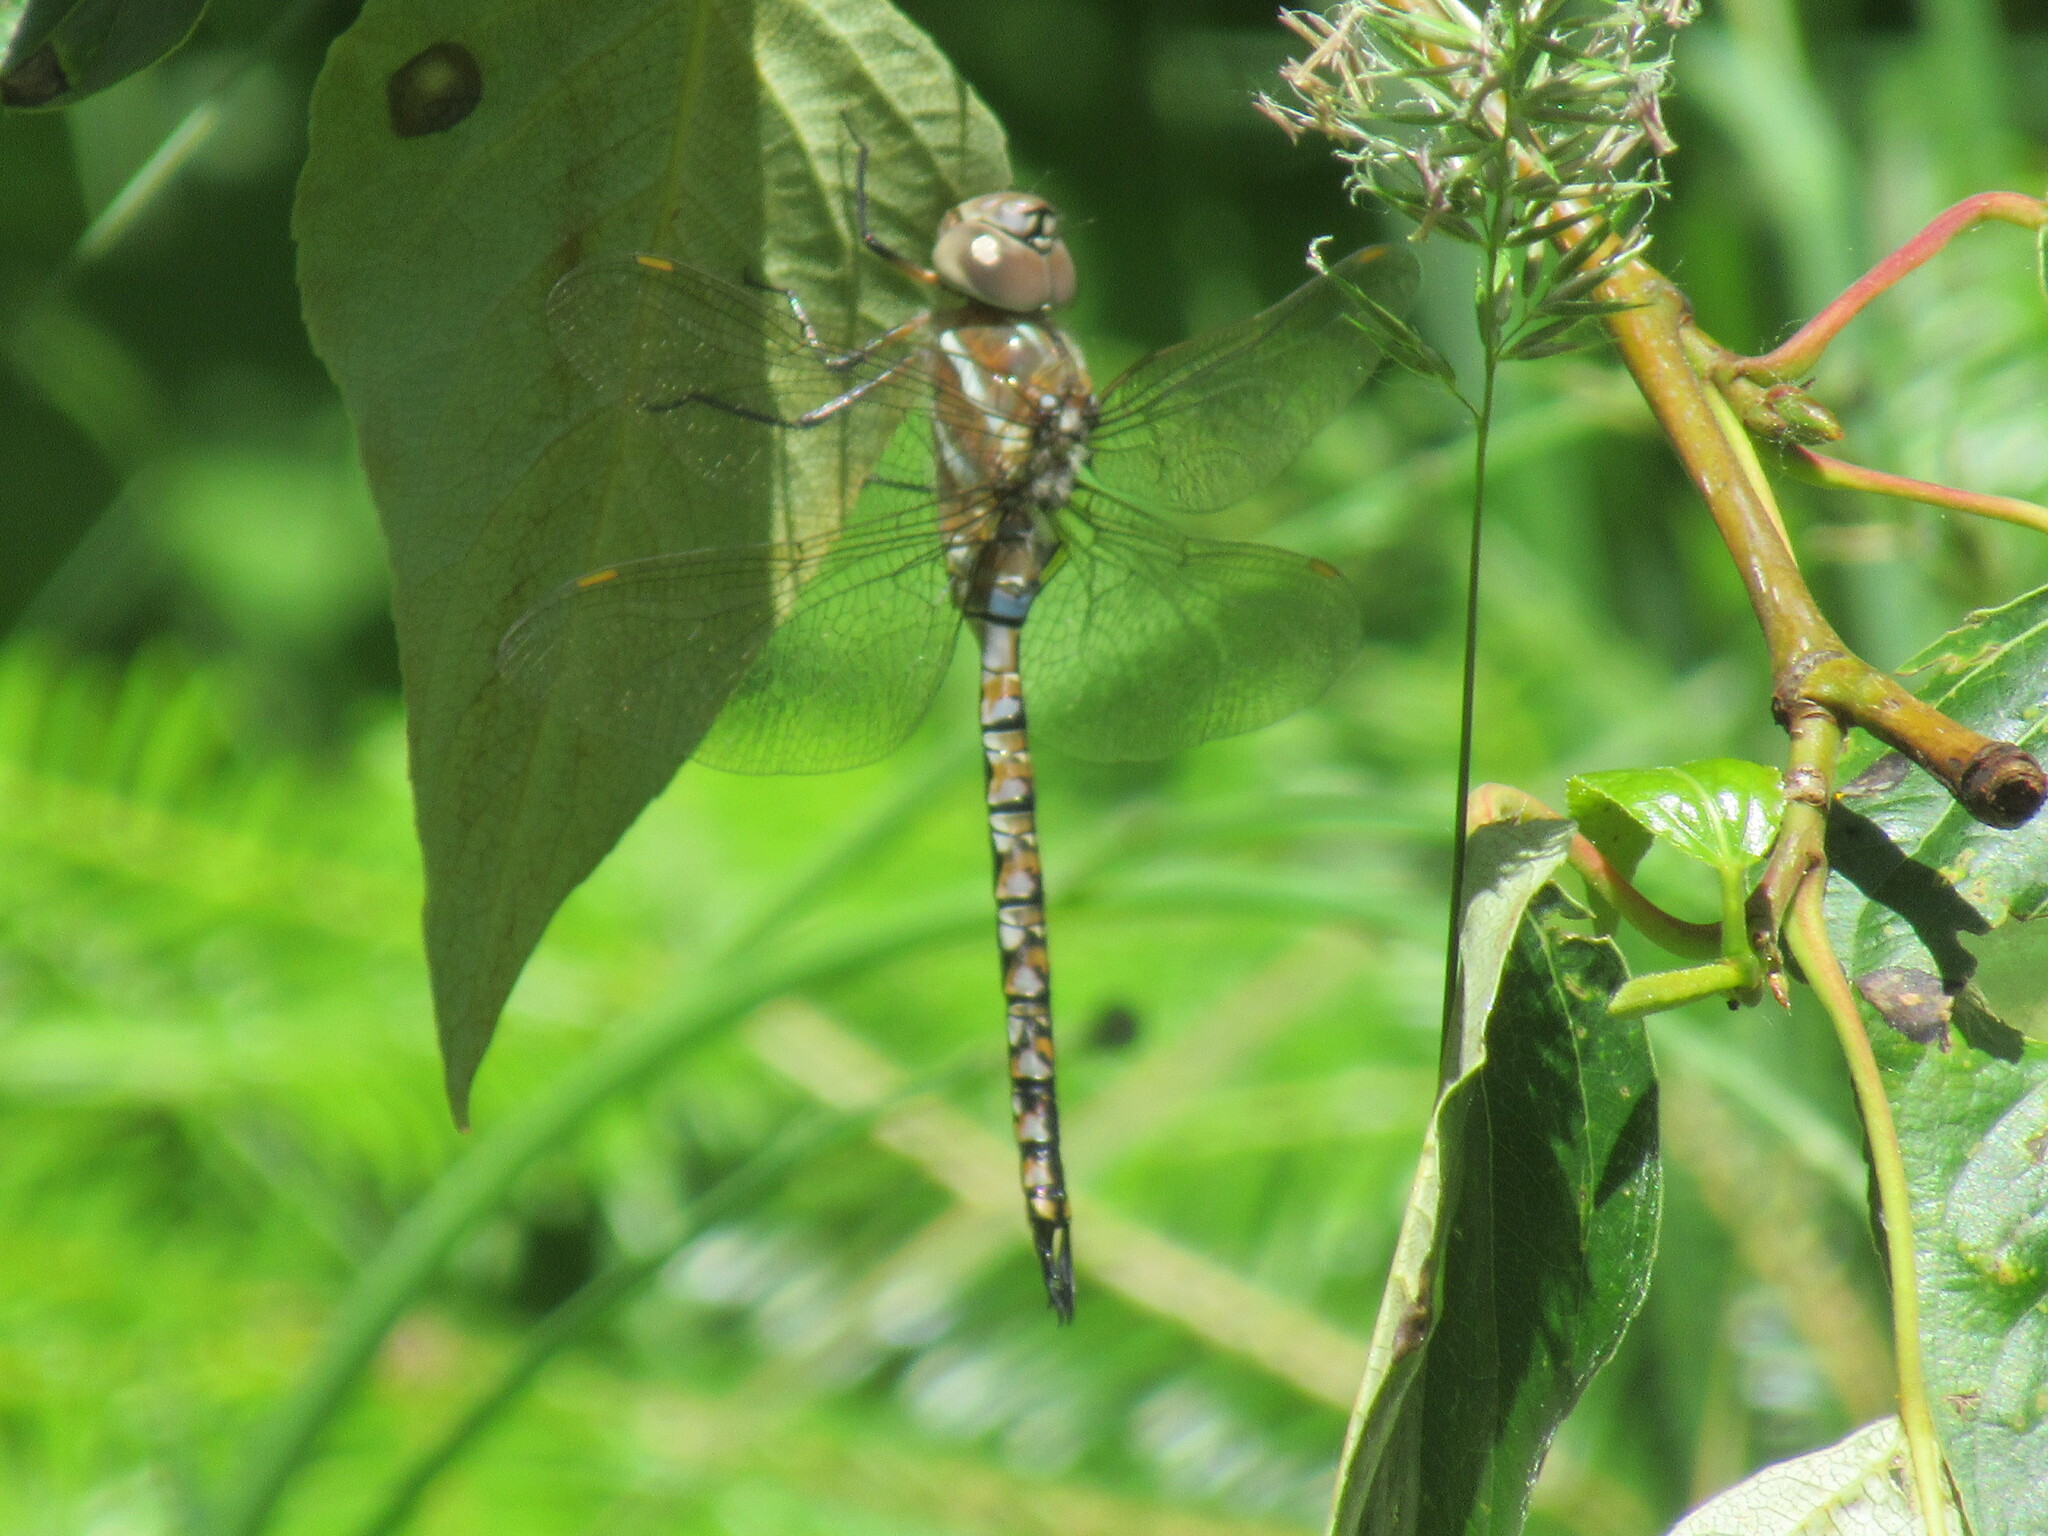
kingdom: Animalia
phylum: Arthropoda
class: Insecta
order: Odonata
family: Aeshnidae
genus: Rhionaeschna
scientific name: Rhionaeschna multicolor
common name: Blue-eyed darner
